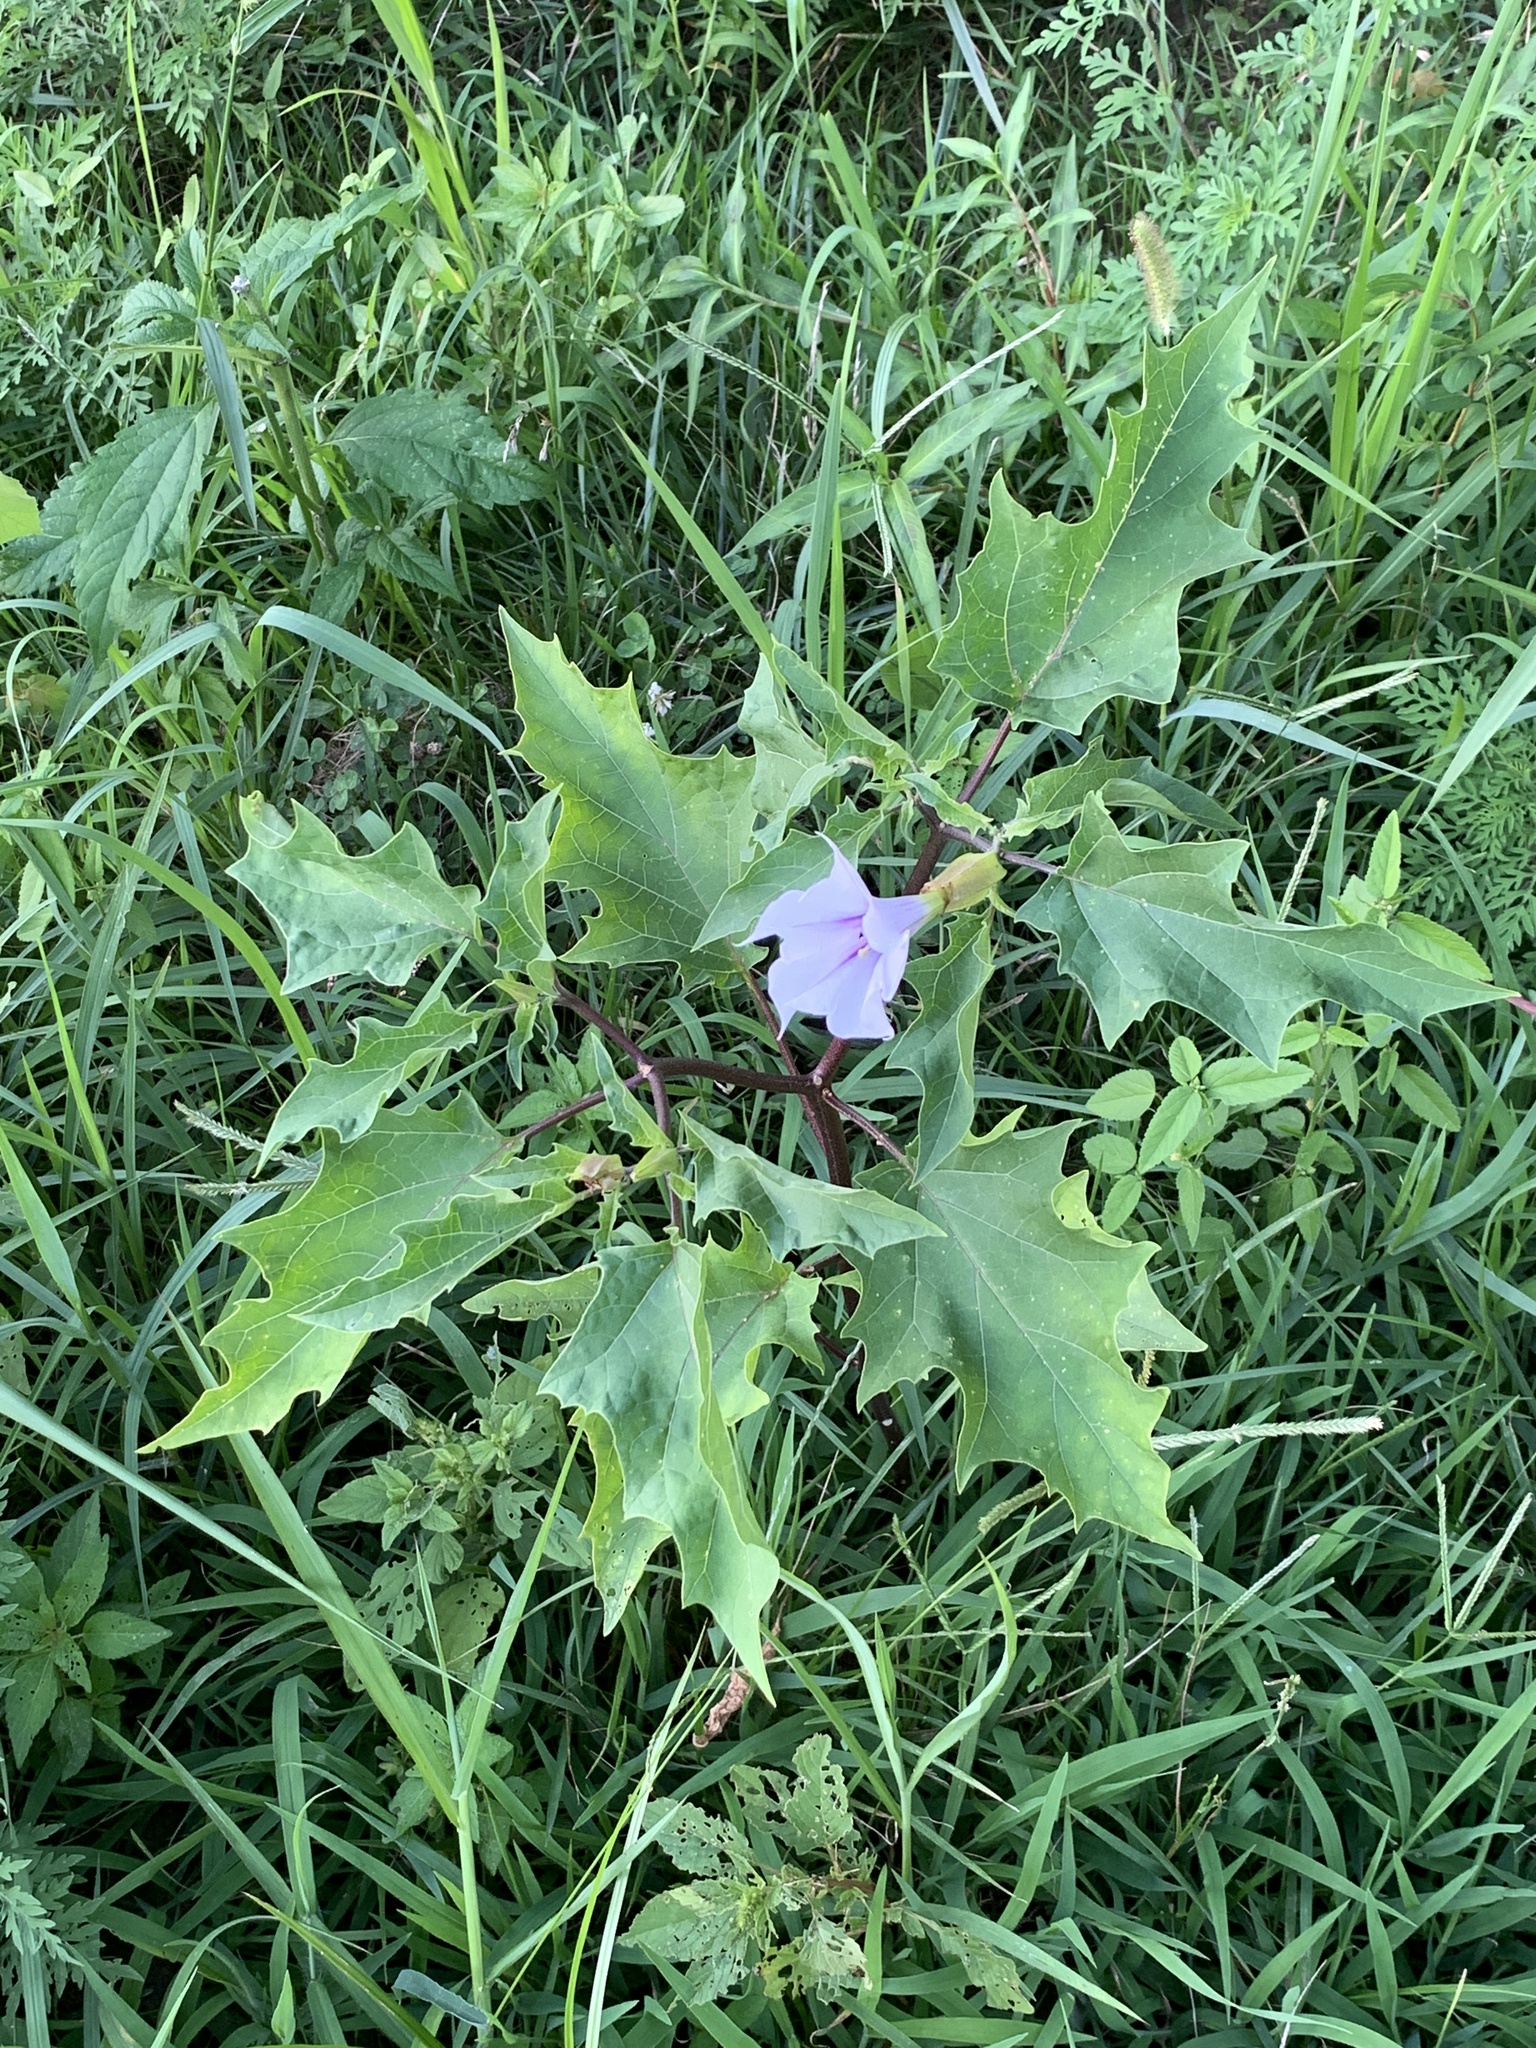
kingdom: Plantae
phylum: Tracheophyta
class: Magnoliopsida
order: Solanales
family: Solanaceae
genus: Datura
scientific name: Datura stramonium
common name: Thorn-apple
